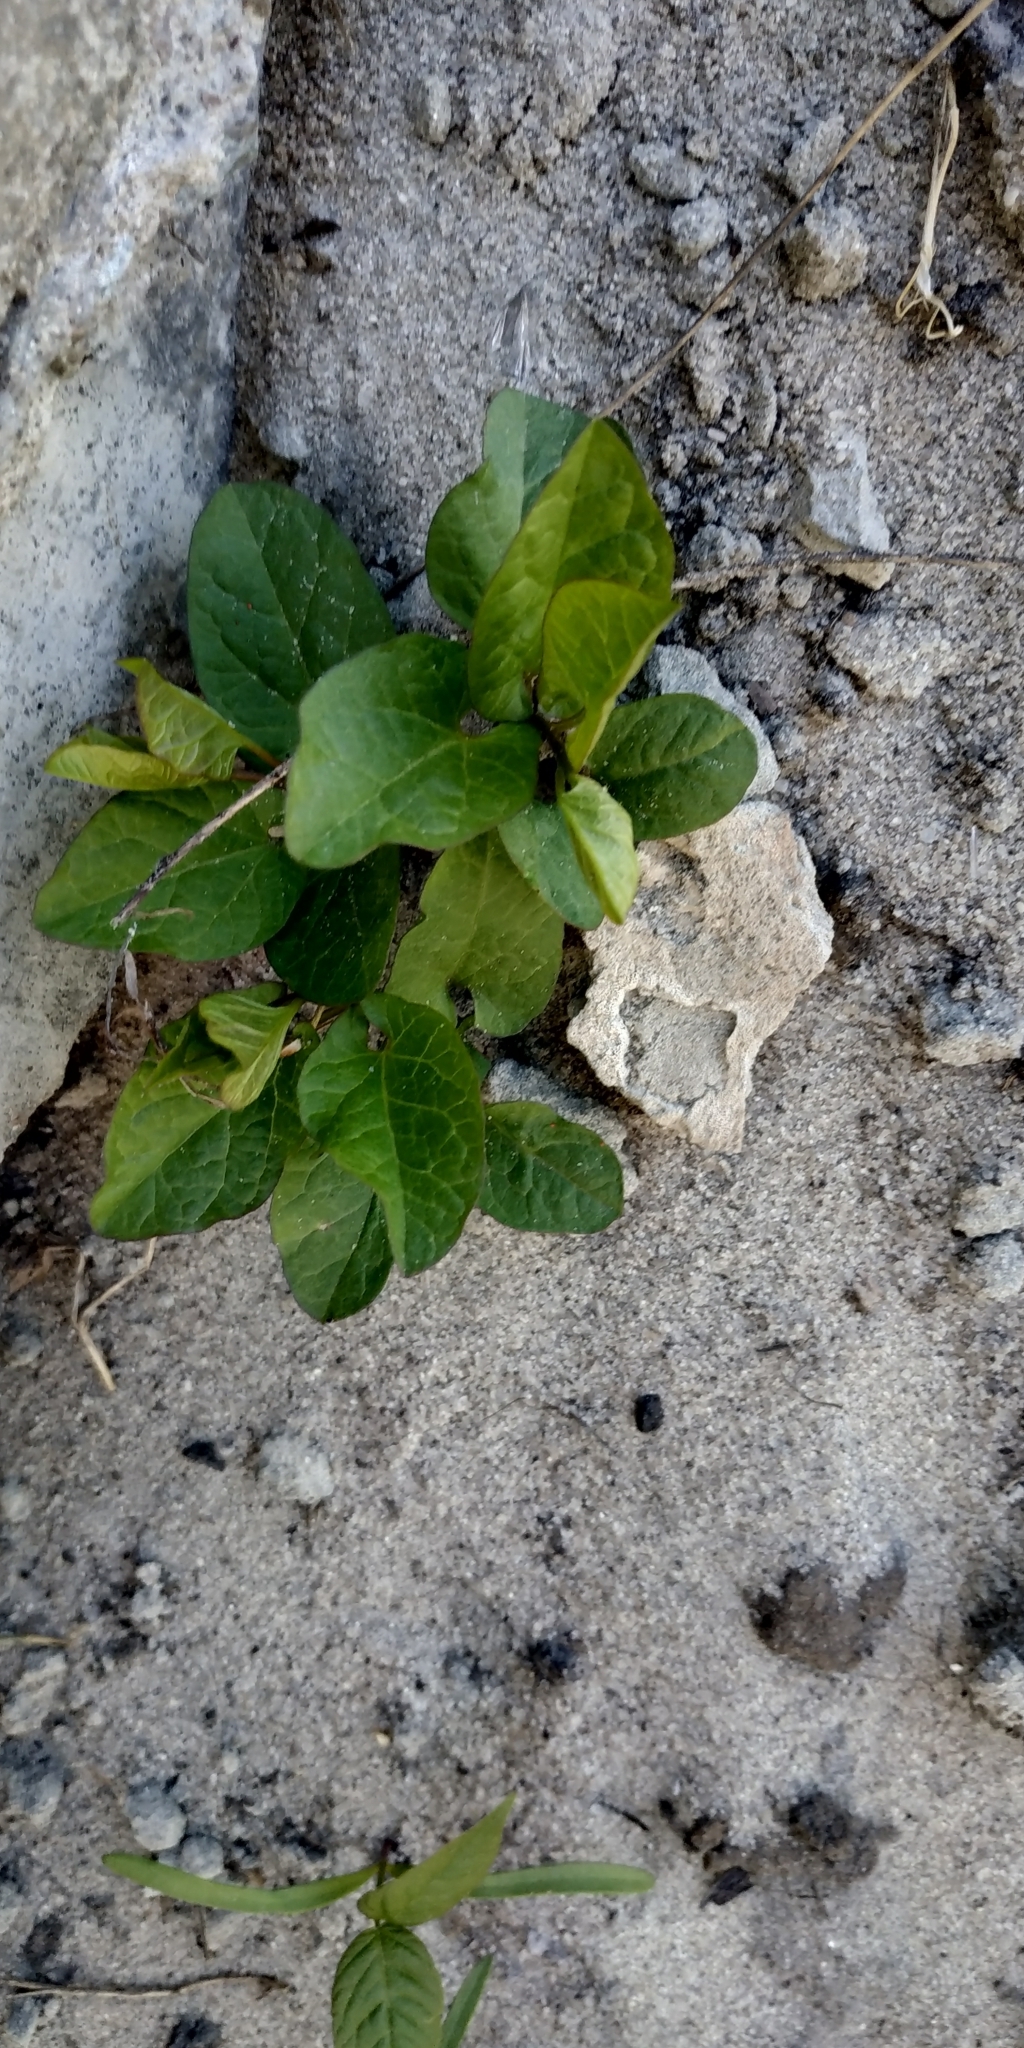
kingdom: Plantae
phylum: Tracheophyta
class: Magnoliopsida
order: Solanales
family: Convolvulaceae
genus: Convolvulus
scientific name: Convolvulus arvensis
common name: Field bindweed
